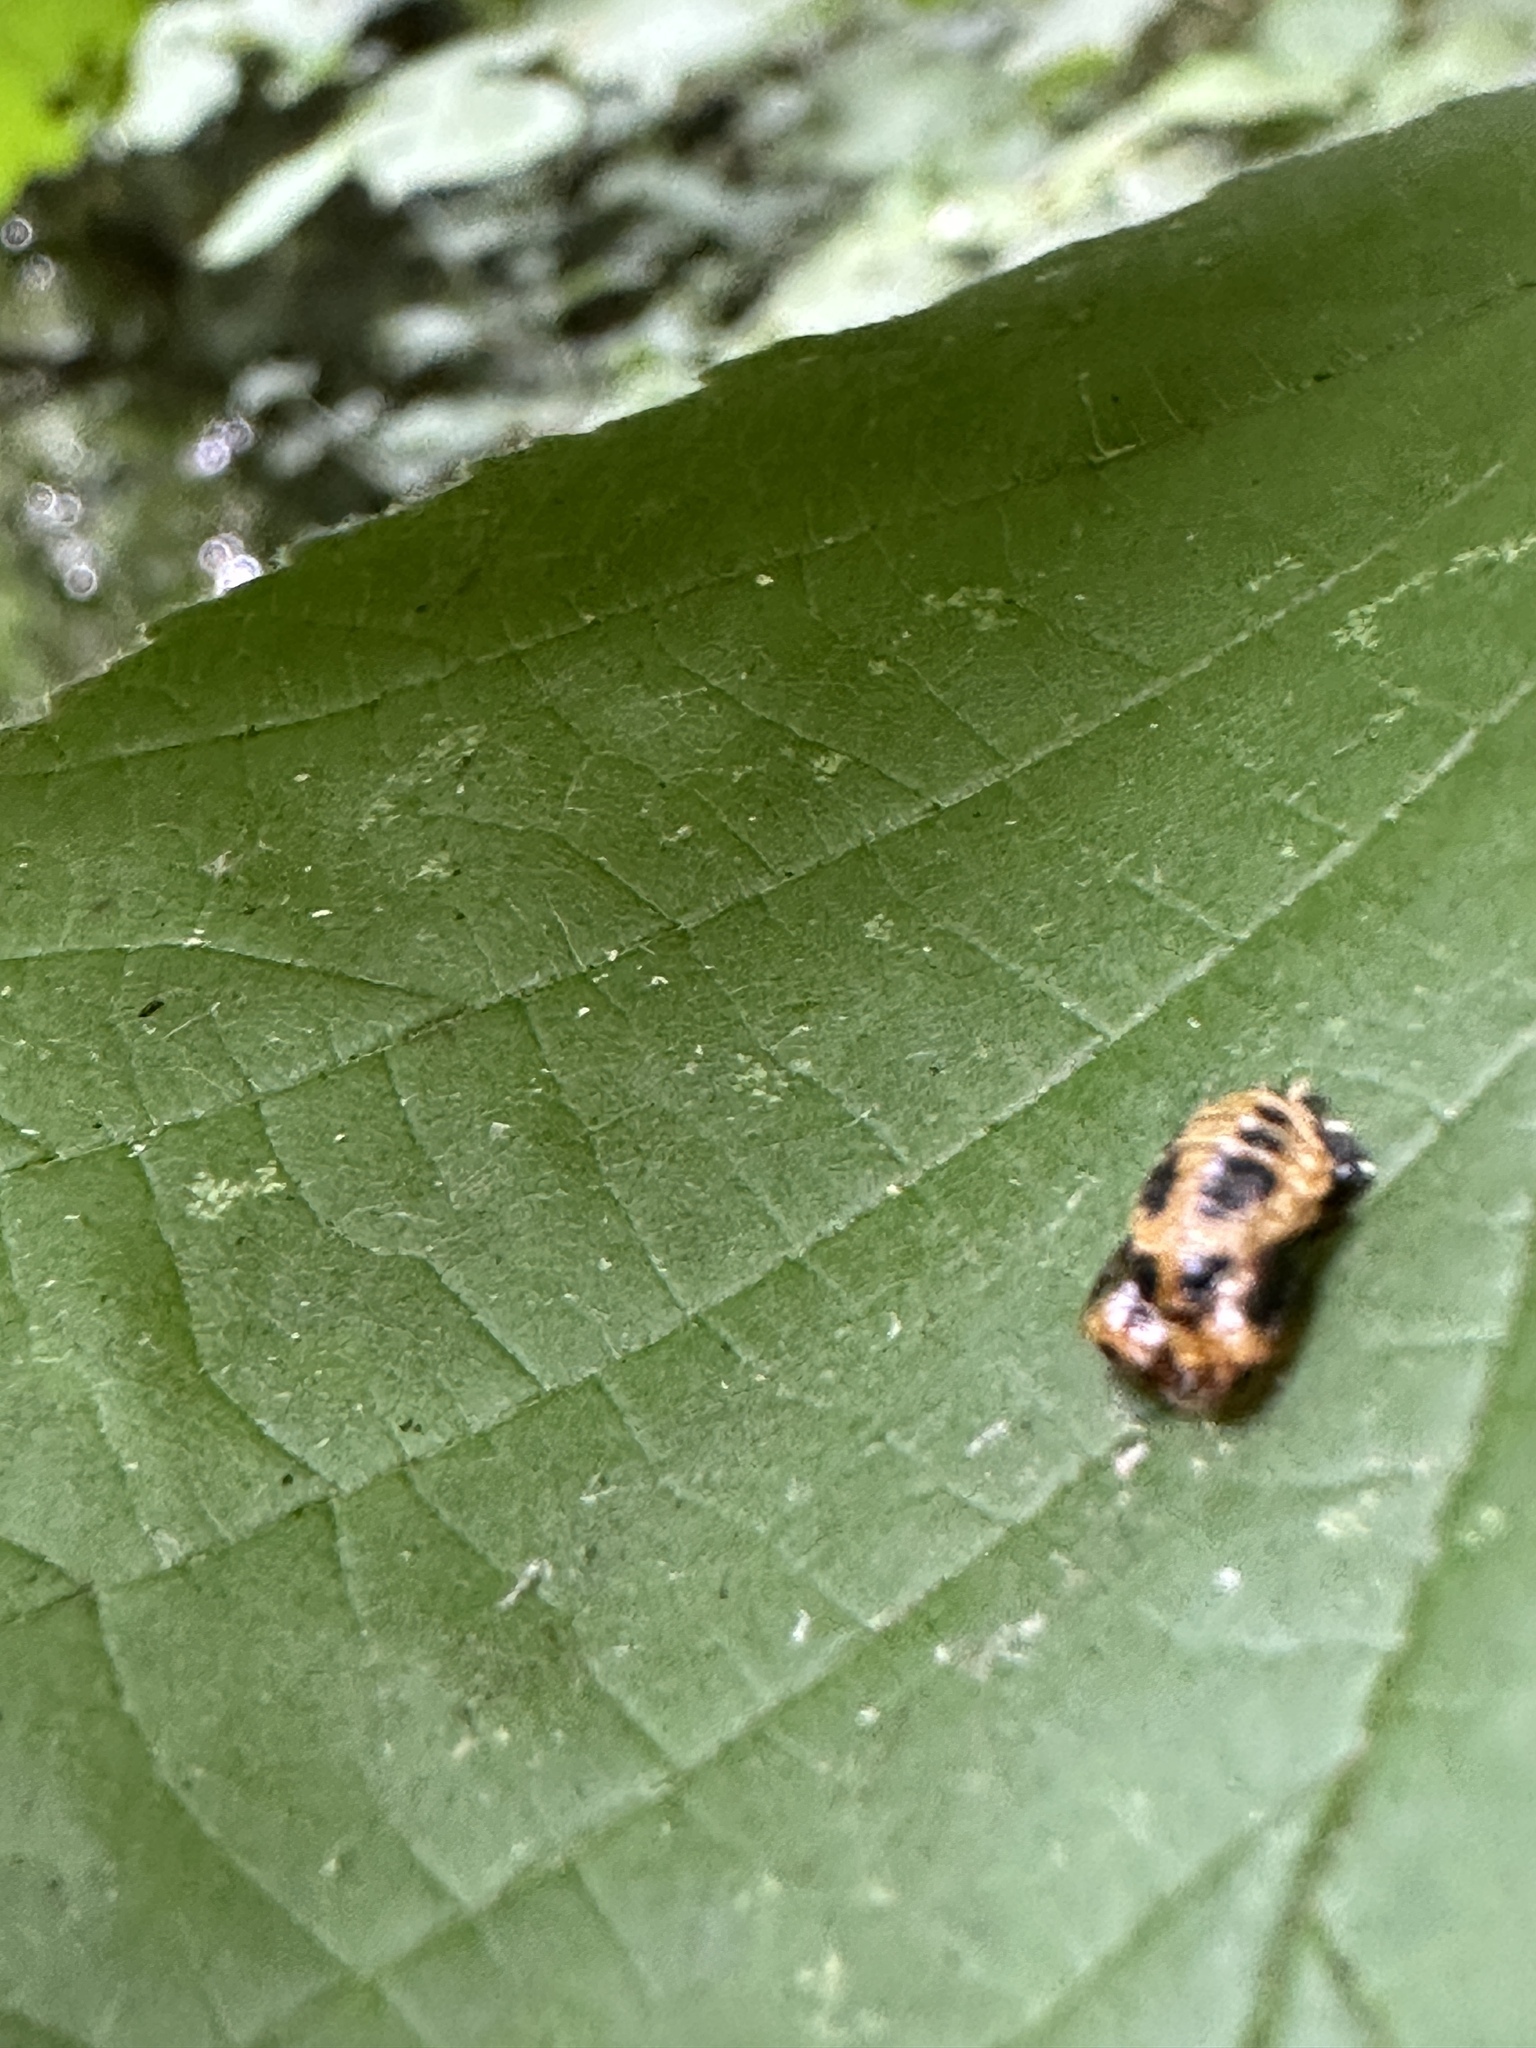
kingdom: Animalia
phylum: Arthropoda
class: Insecta
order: Coleoptera
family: Coccinellidae
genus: Harmonia
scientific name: Harmonia axyridis
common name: Harlequin ladybird
